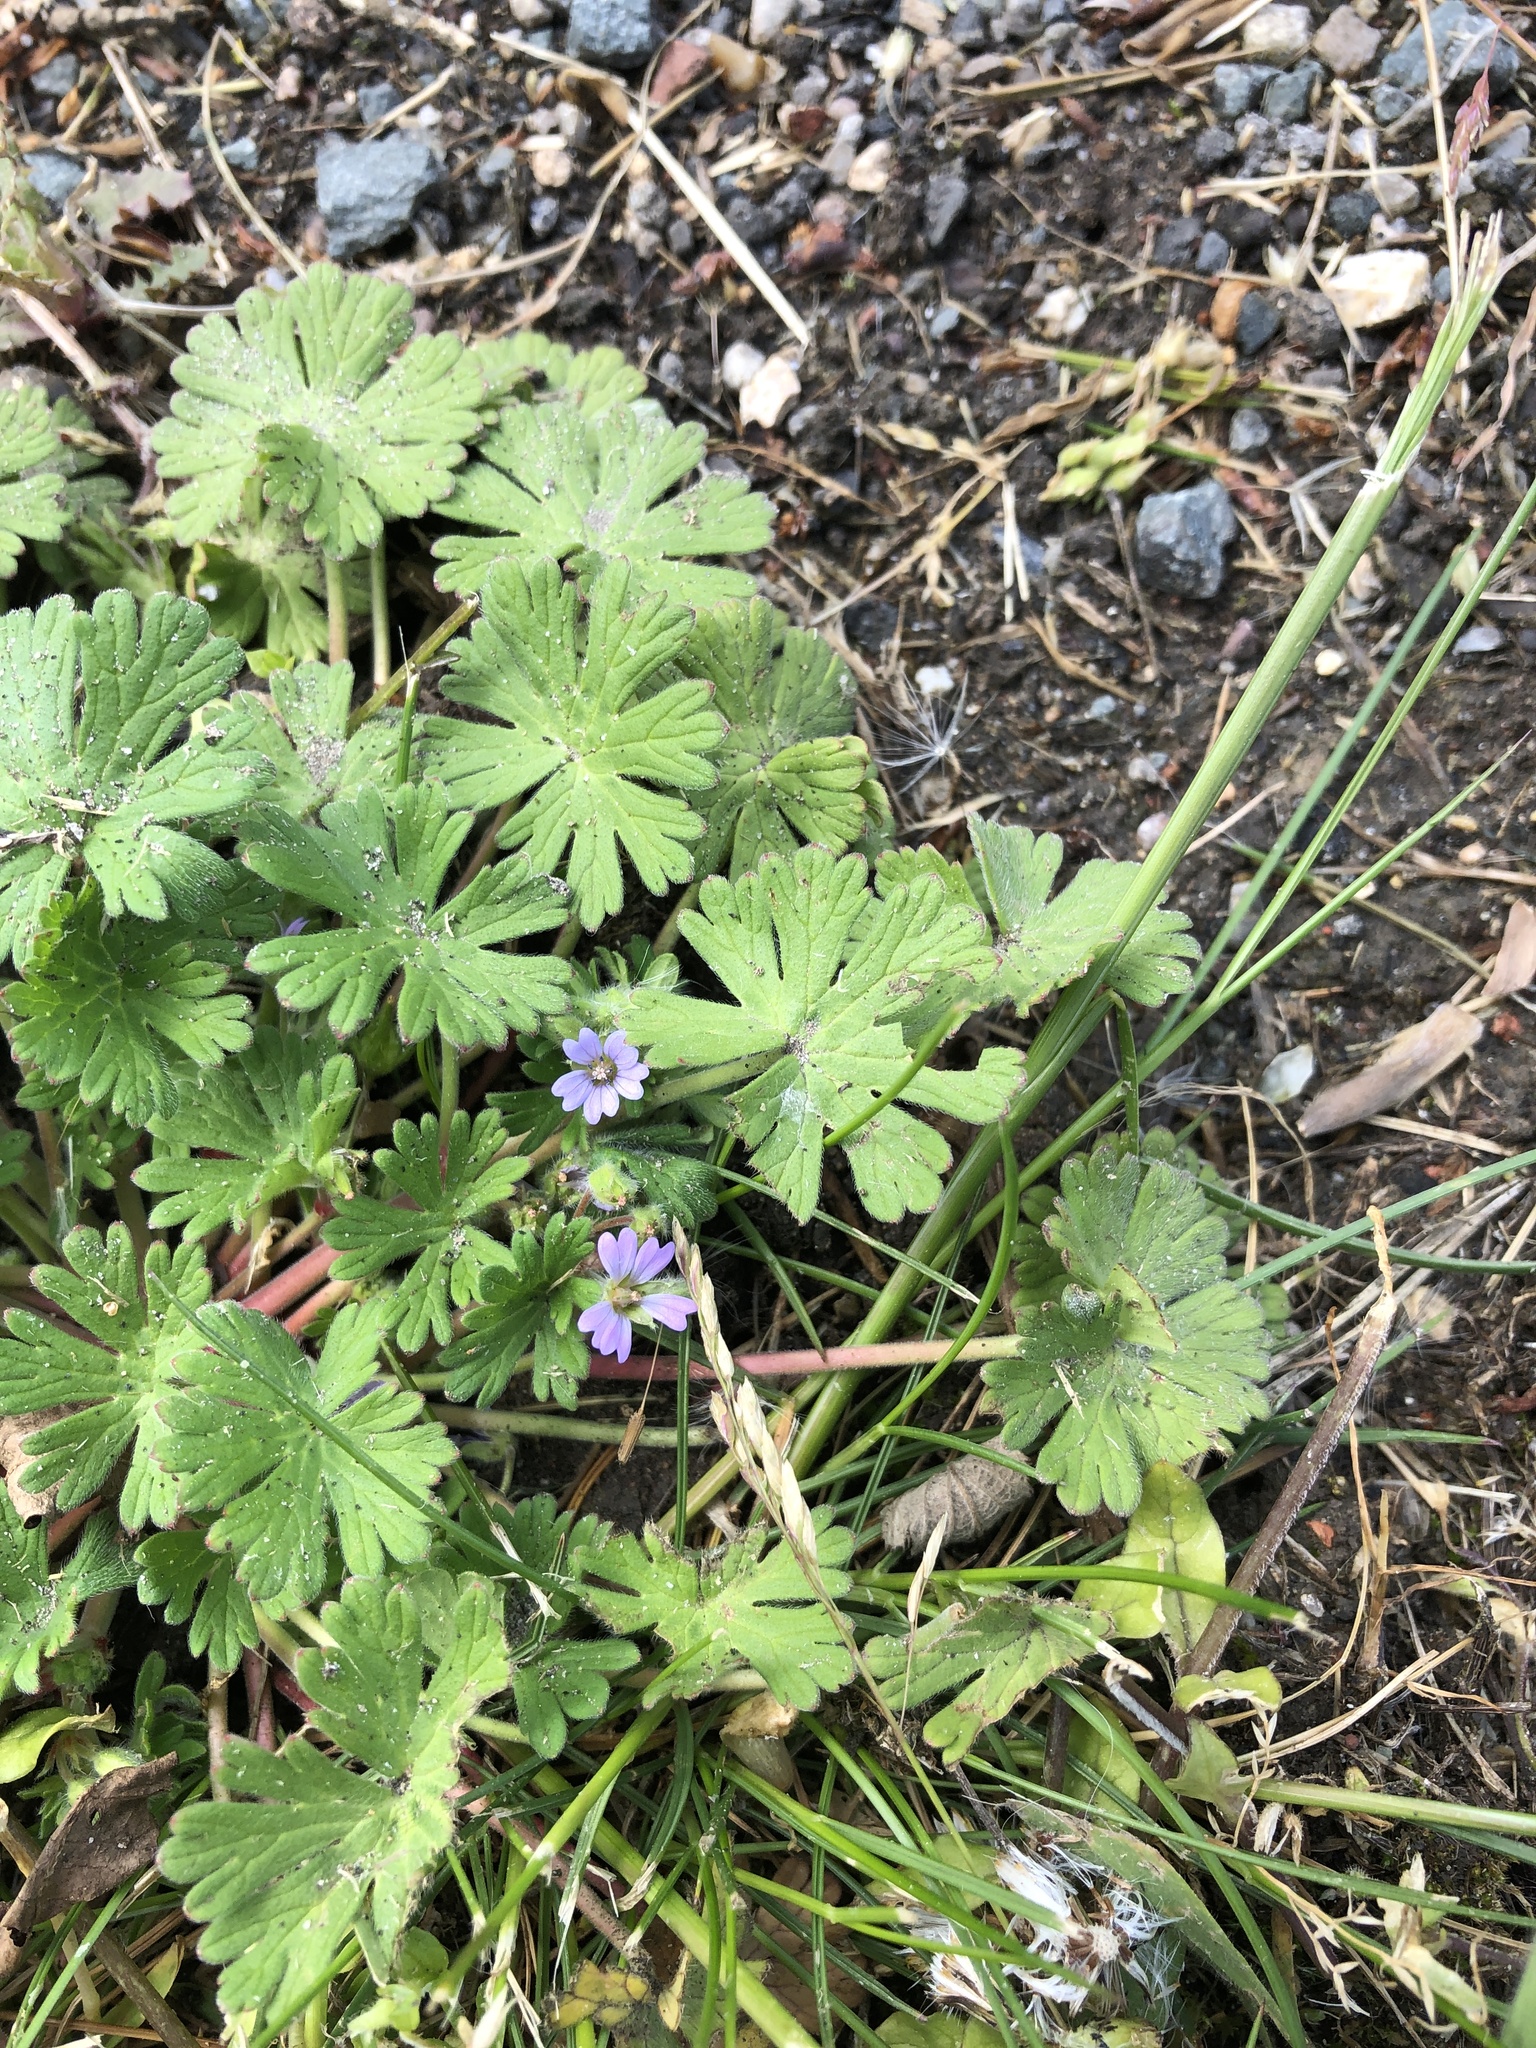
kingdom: Plantae
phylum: Tracheophyta
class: Magnoliopsida
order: Geraniales
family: Geraniaceae
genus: Geranium
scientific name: Geranium pusillum
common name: Small geranium
